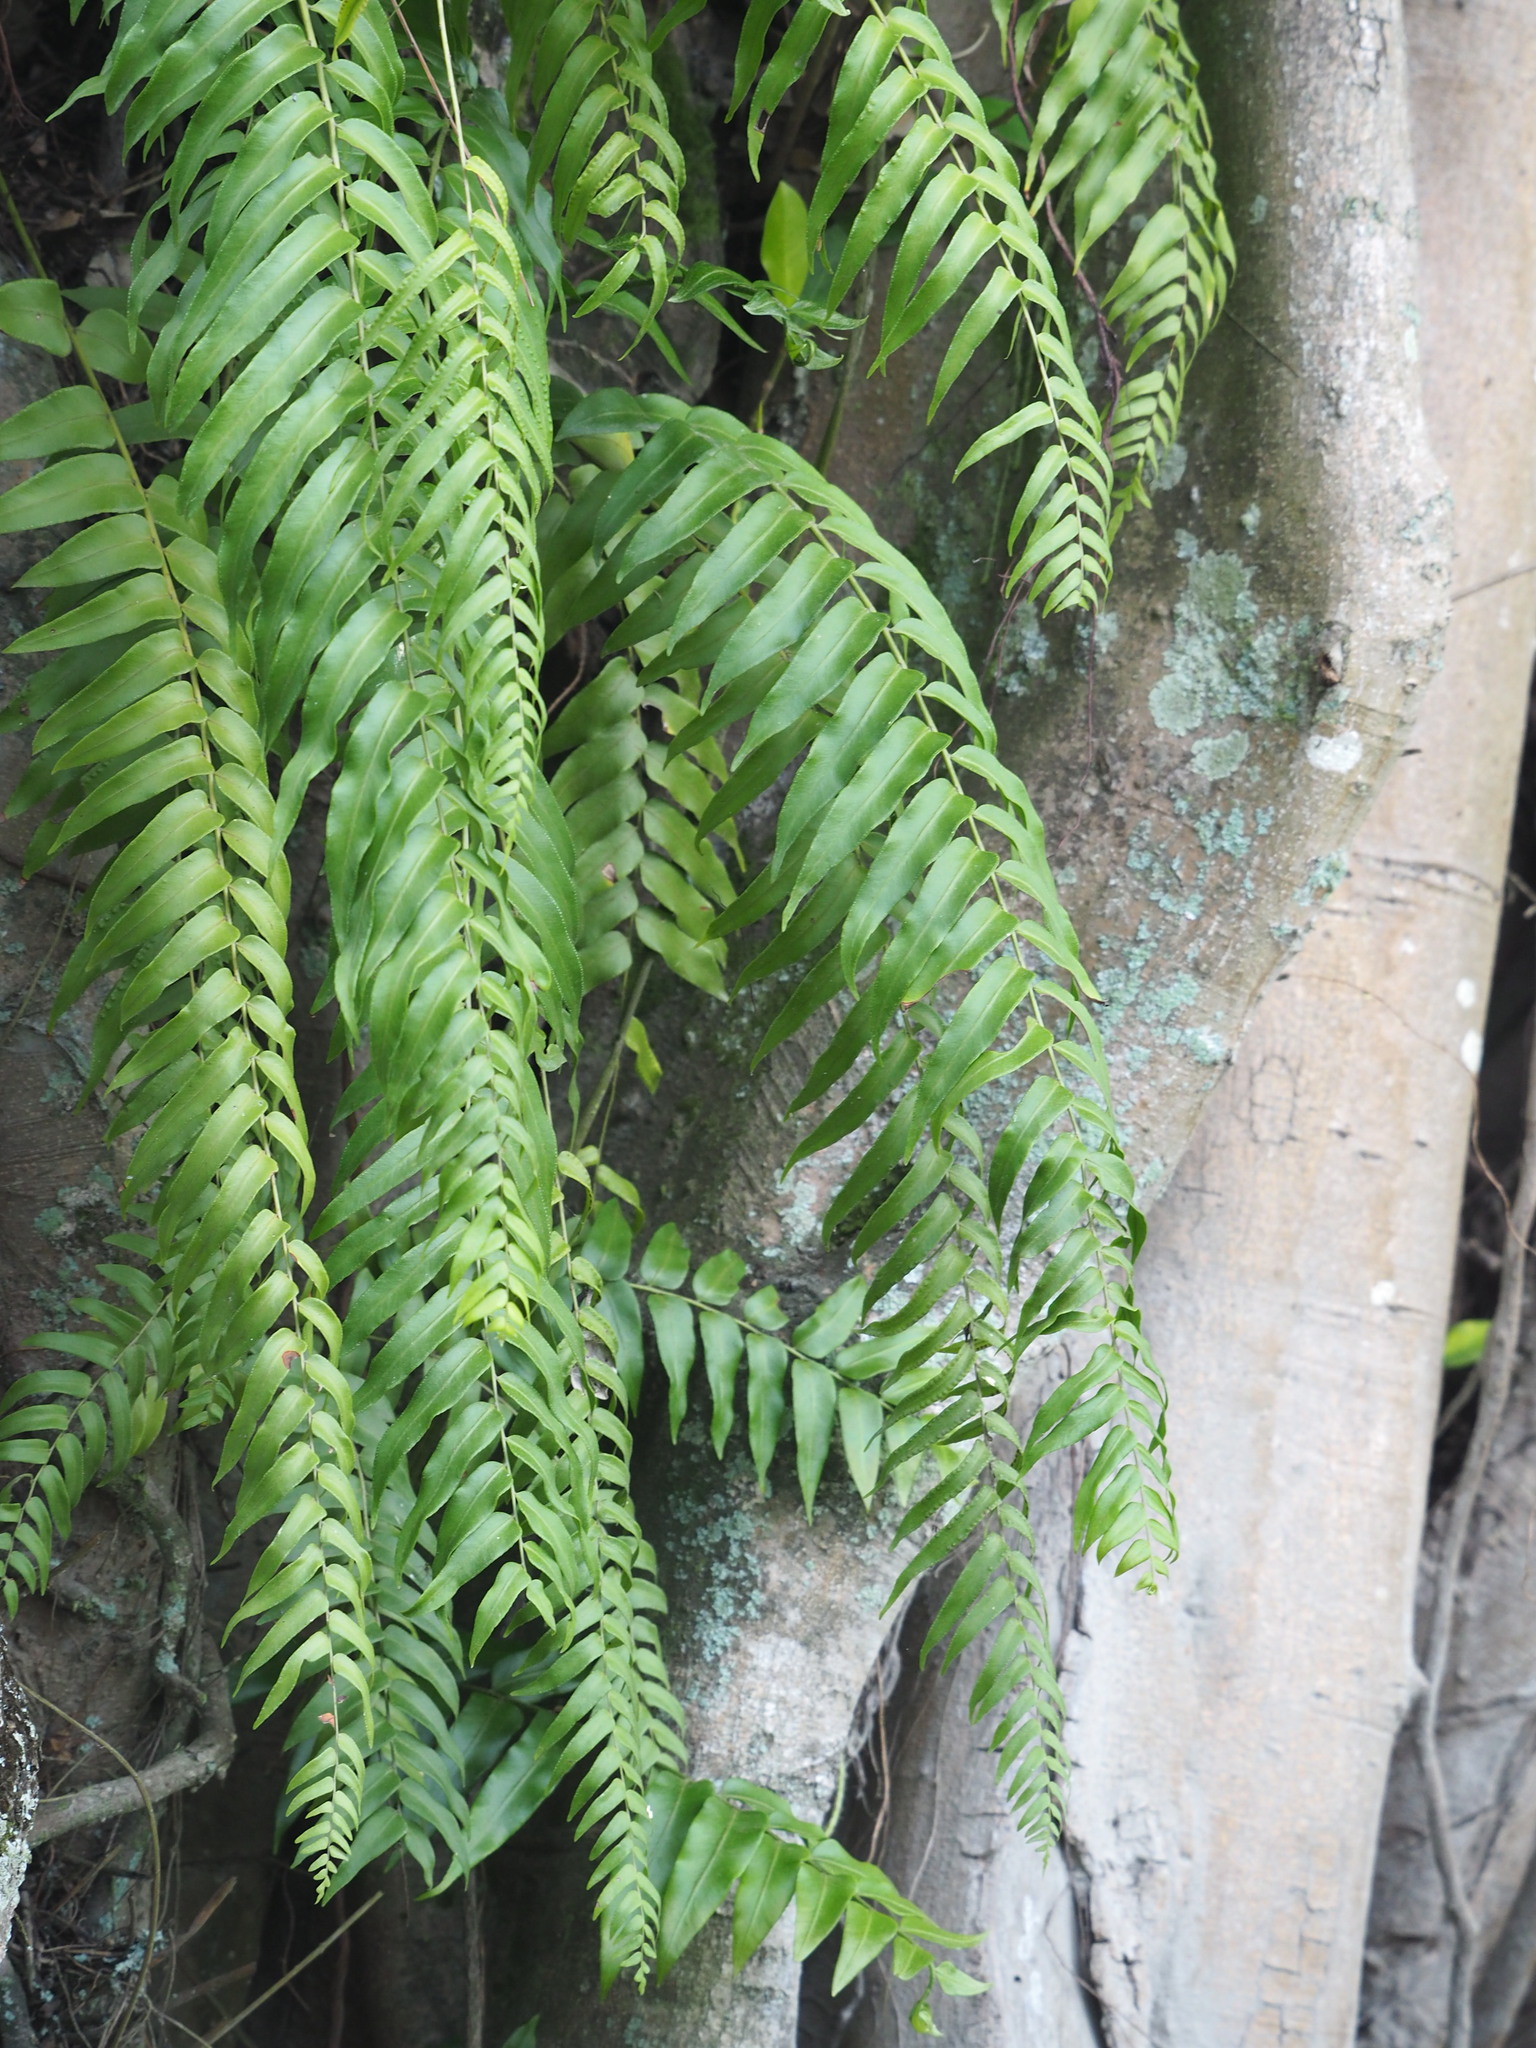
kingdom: Plantae
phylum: Tracheophyta
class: Polypodiopsida
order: Polypodiales
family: Nephrolepidaceae
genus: Nephrolepis
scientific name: Nephrolepis biserrata
